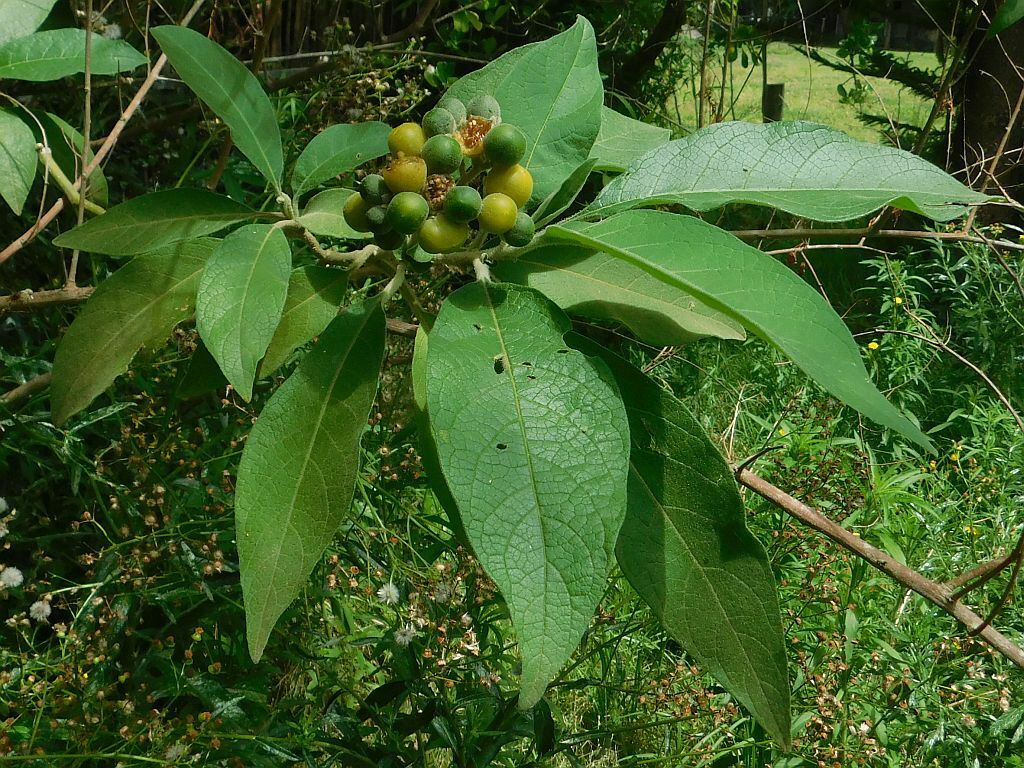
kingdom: Plantae
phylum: Tracheophyta
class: Magnoliopsida
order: Solanales
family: Solanaceae
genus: Solanum
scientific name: Solanum mauritianum
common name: Earleaf nightshade
